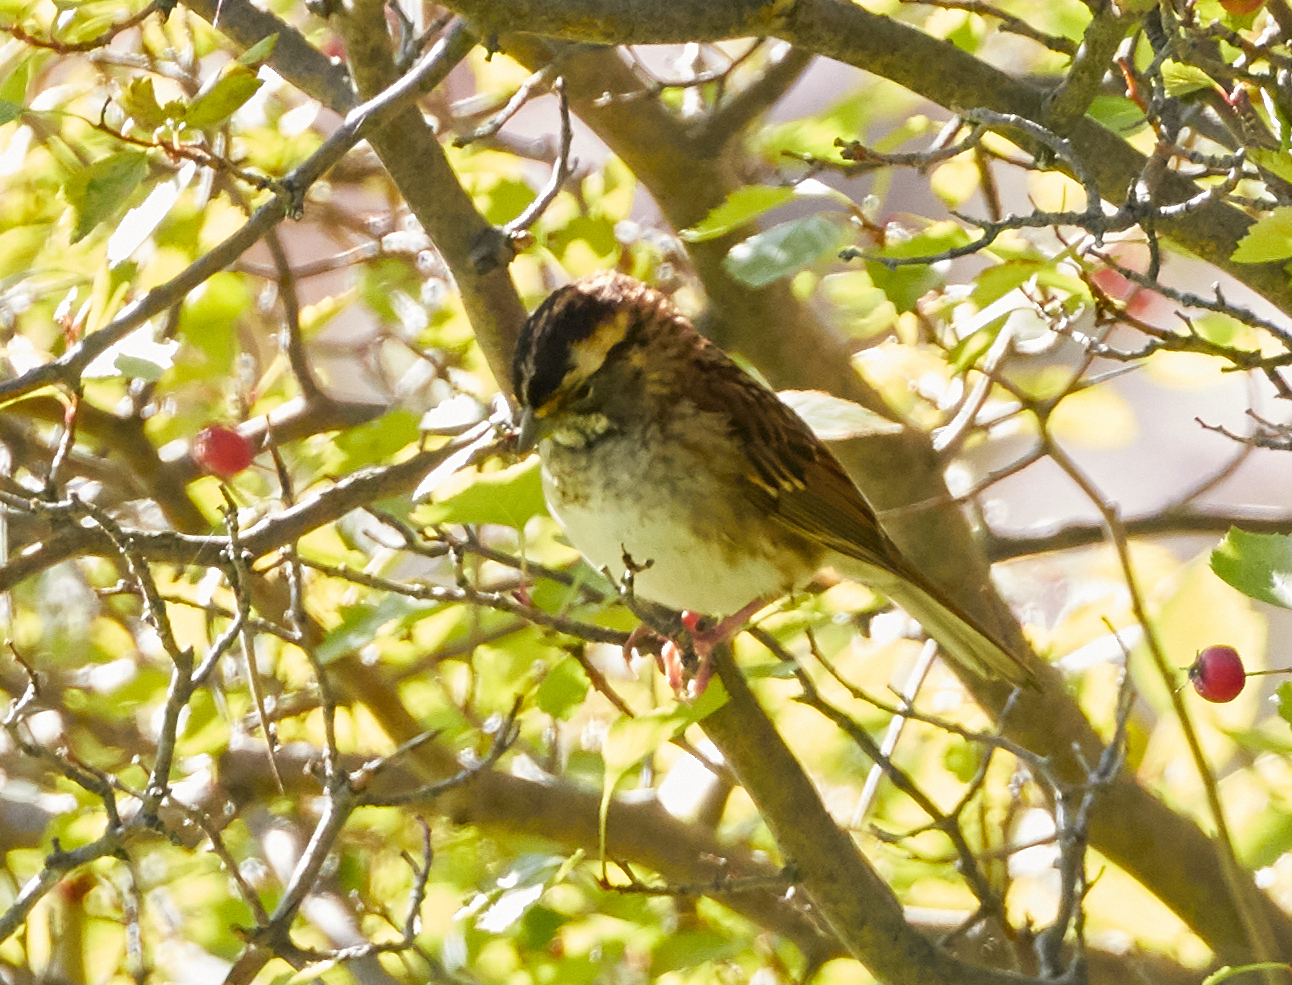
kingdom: Animalia
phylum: Chordata
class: Aves
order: Passeriformes
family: Passerellidae
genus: Zonotrichia
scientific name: Zonotrichia albicollis
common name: White-throated sparrow
